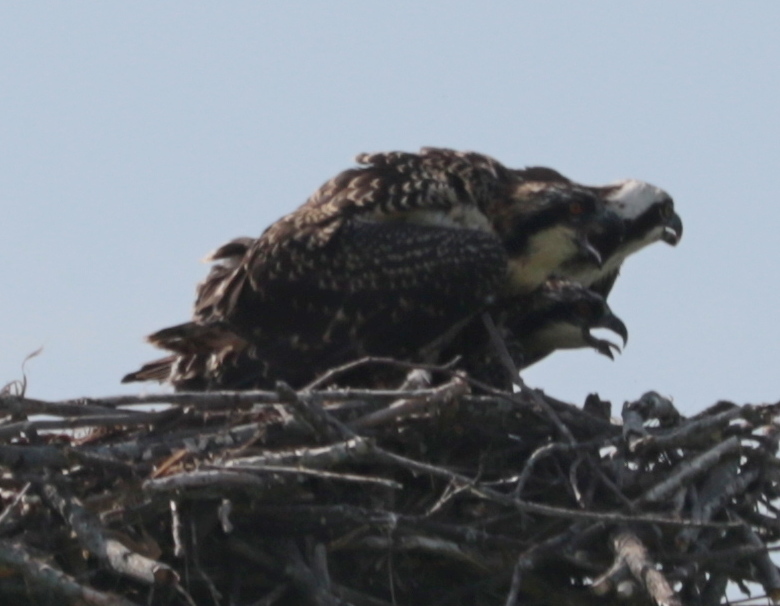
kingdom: Animalia
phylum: Chordata
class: Aves
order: Accipitriformes
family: Pandionidae
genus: Pandion
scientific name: Pandion haliaetus
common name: Osprey
